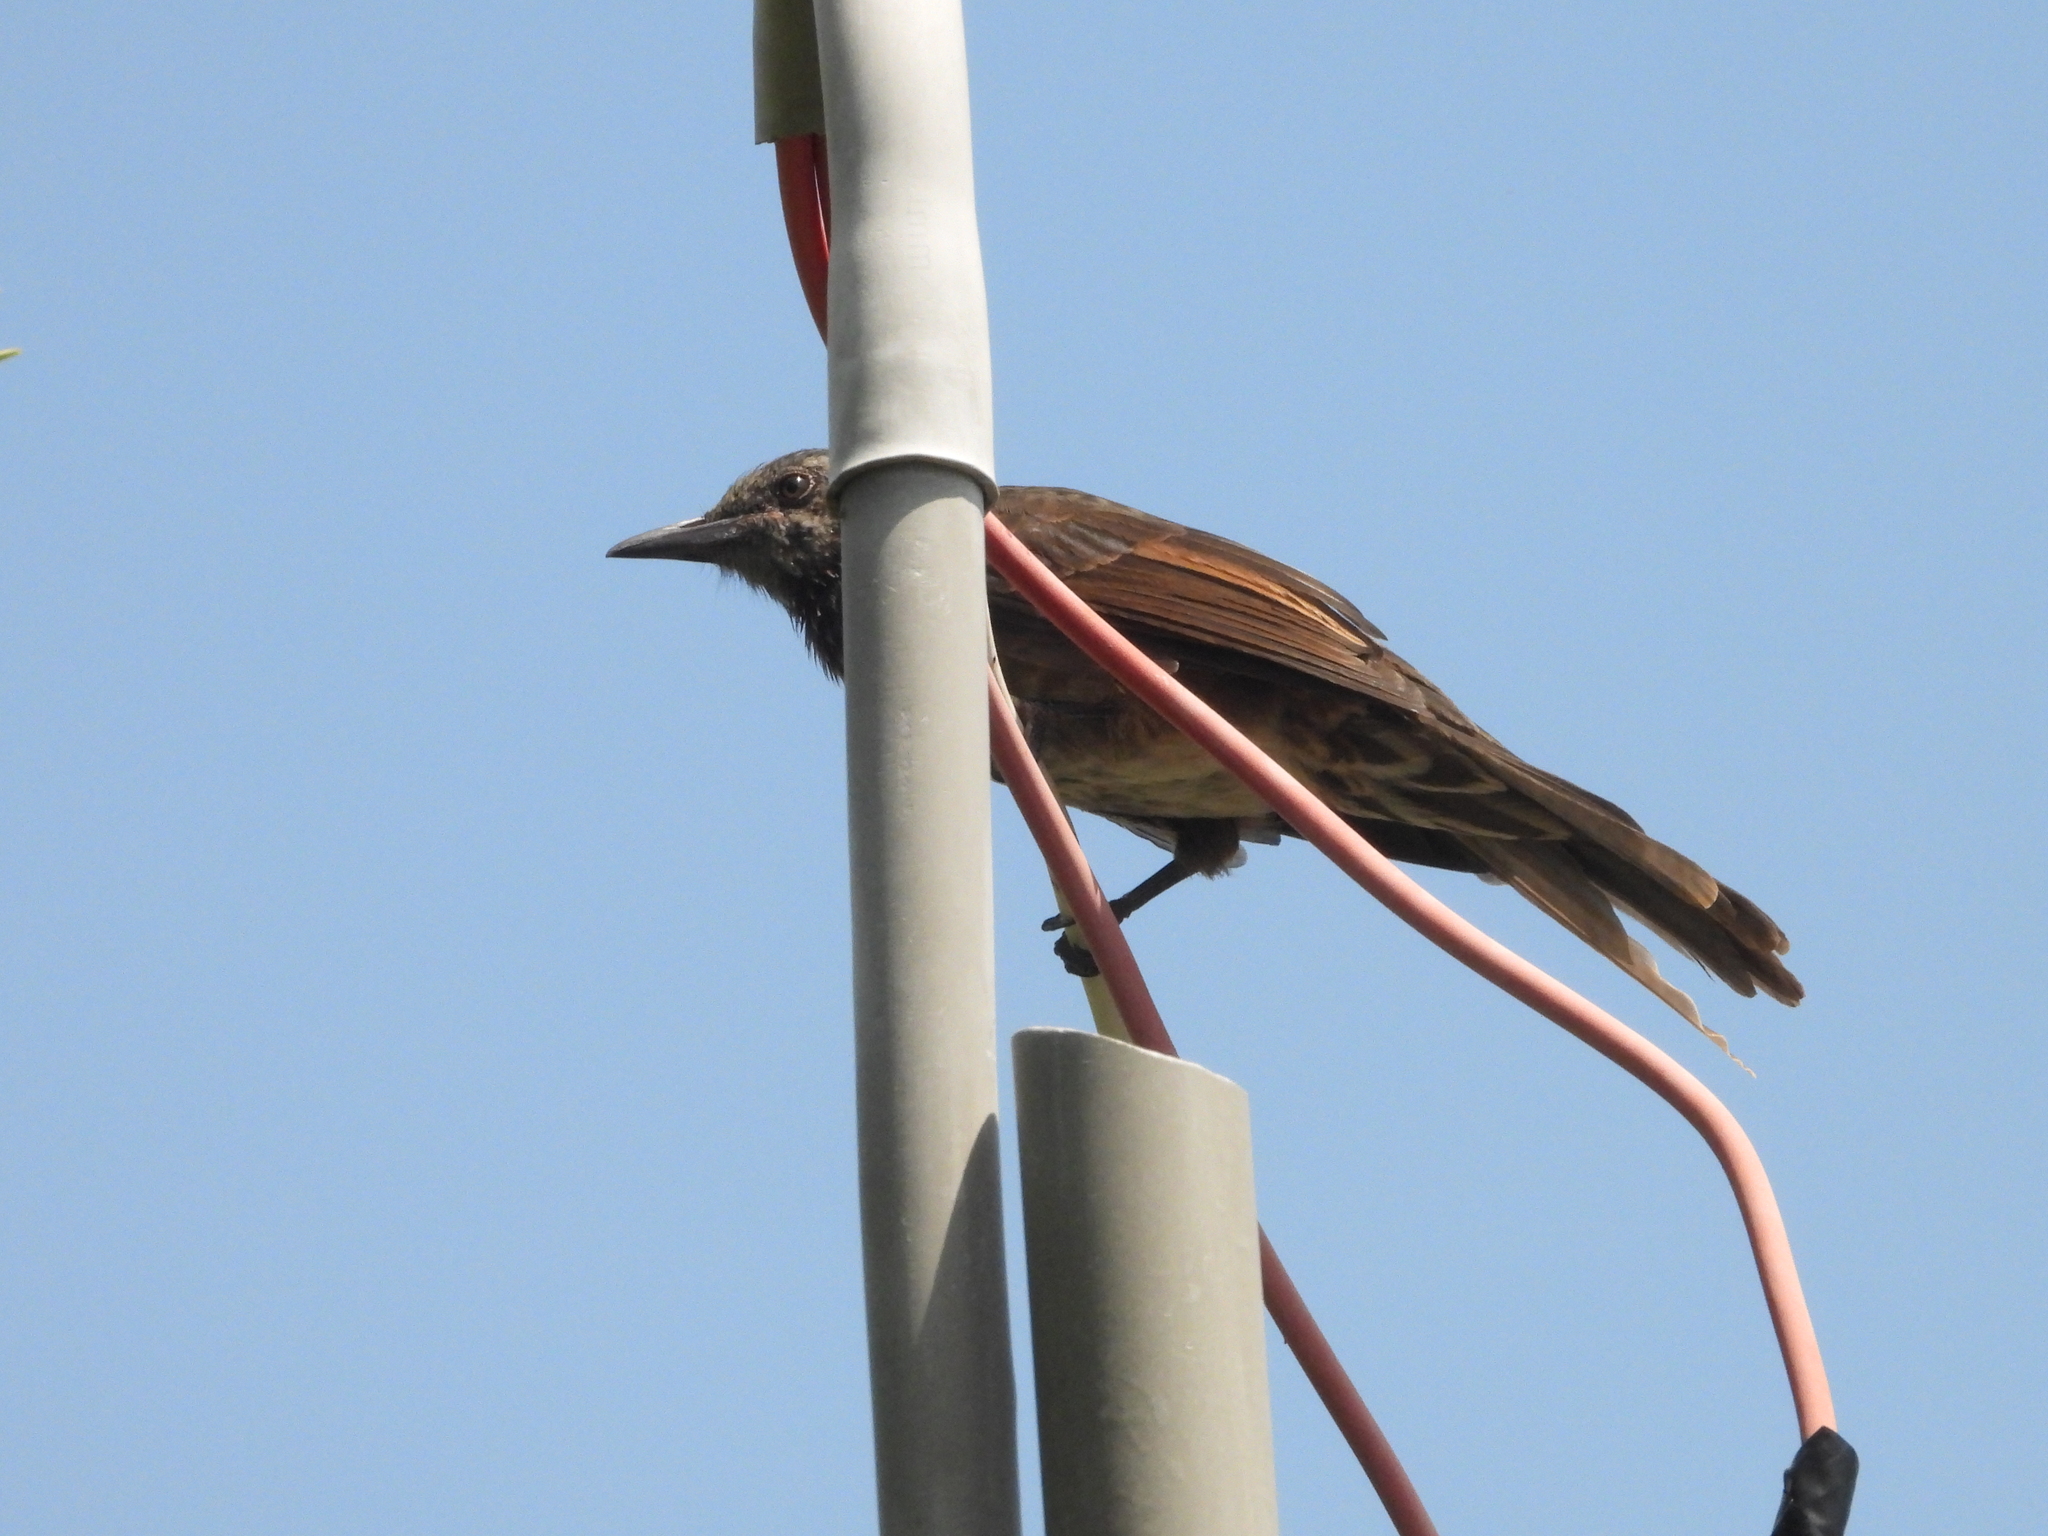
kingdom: Animalia
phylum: Chordata
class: Aves
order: Passeriformes
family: Pycnonotidae
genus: Hypsipetes
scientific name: Hypsipetes amaurotis
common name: Brown-eared bulbul
